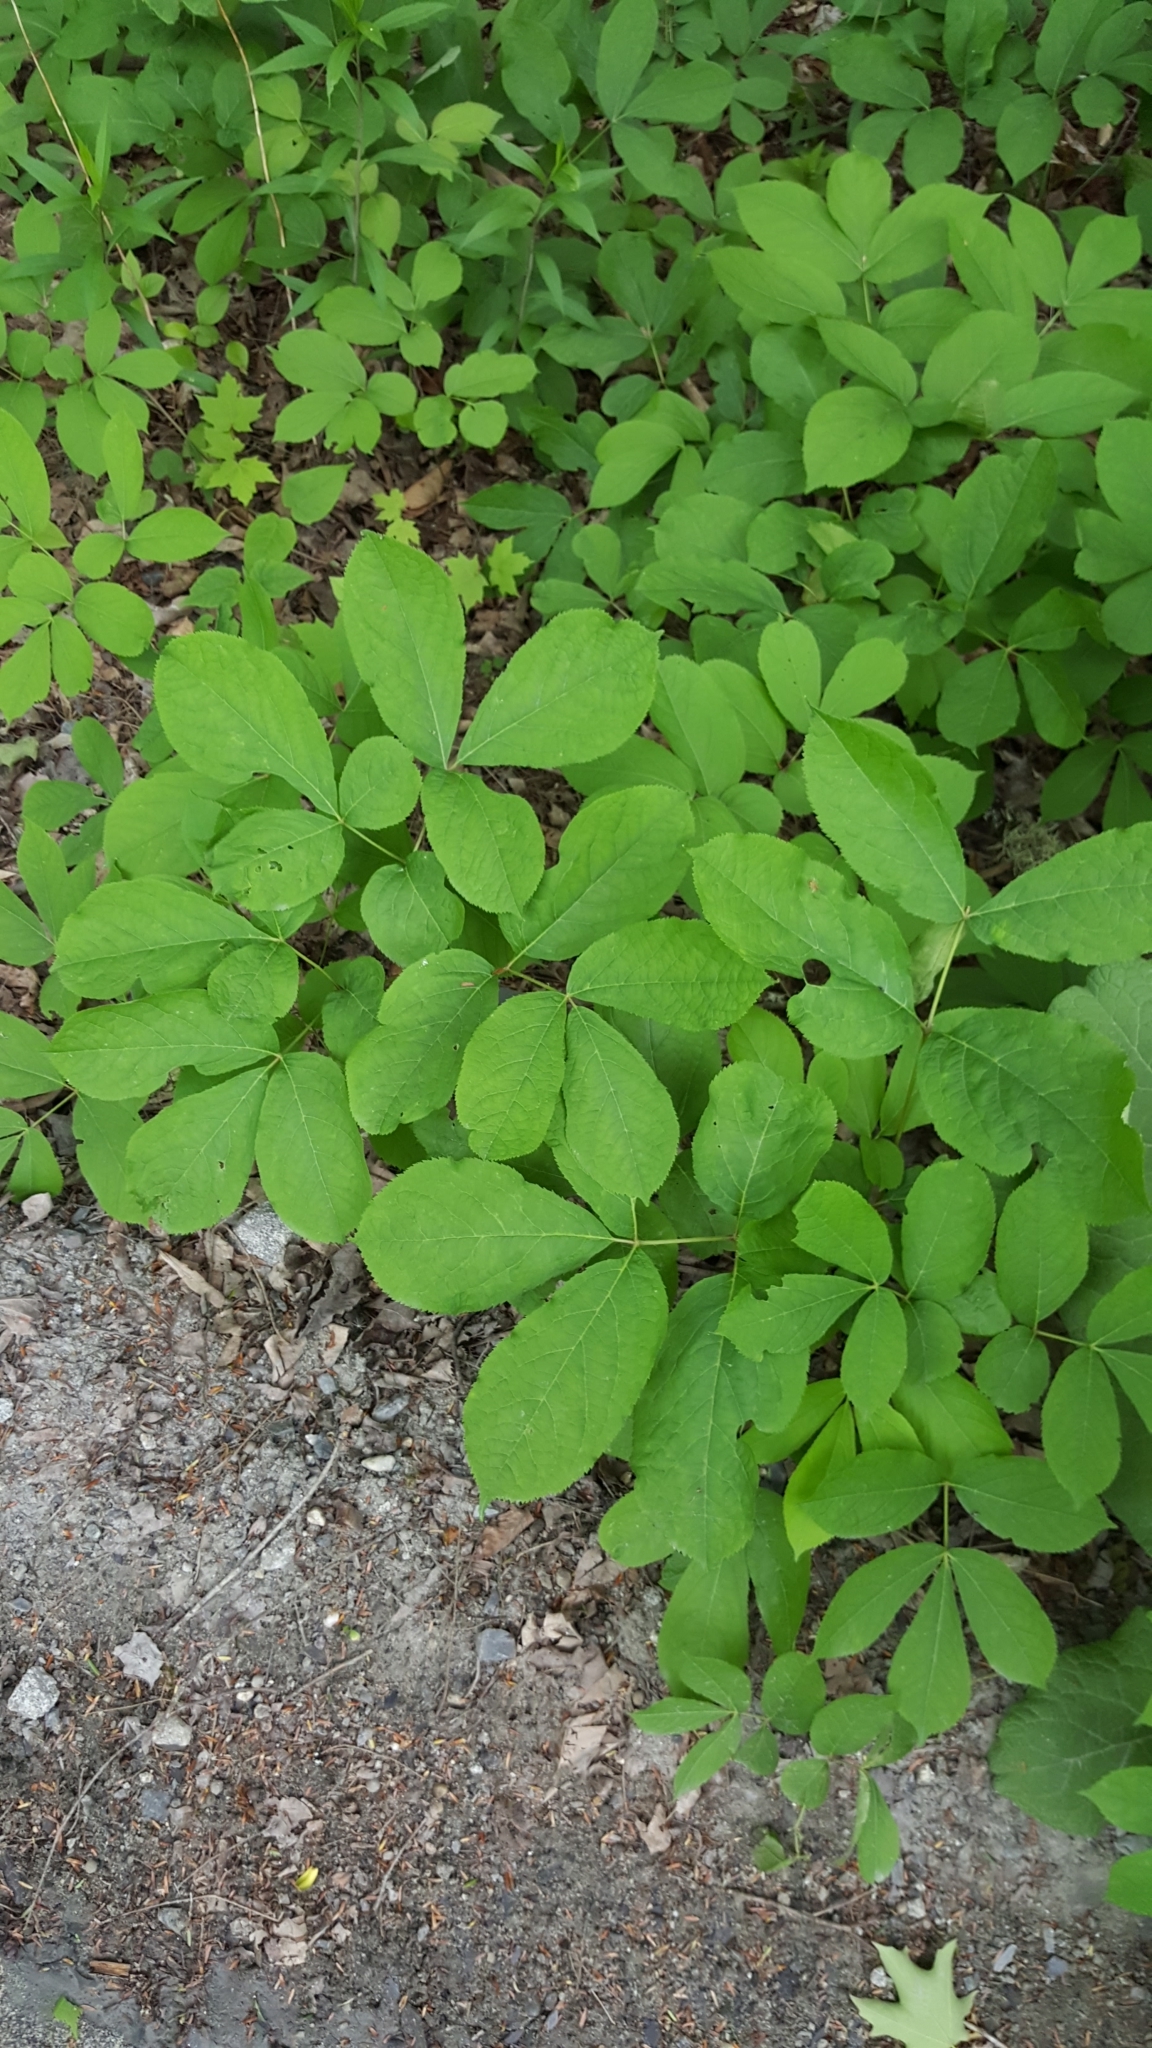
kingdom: Plantae
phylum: Tracheophyta
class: Magnoliopsida
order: Apiales
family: Araliaceae
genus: Aralia
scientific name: Aralia nudicaulis
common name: Wild sarsaparilla
